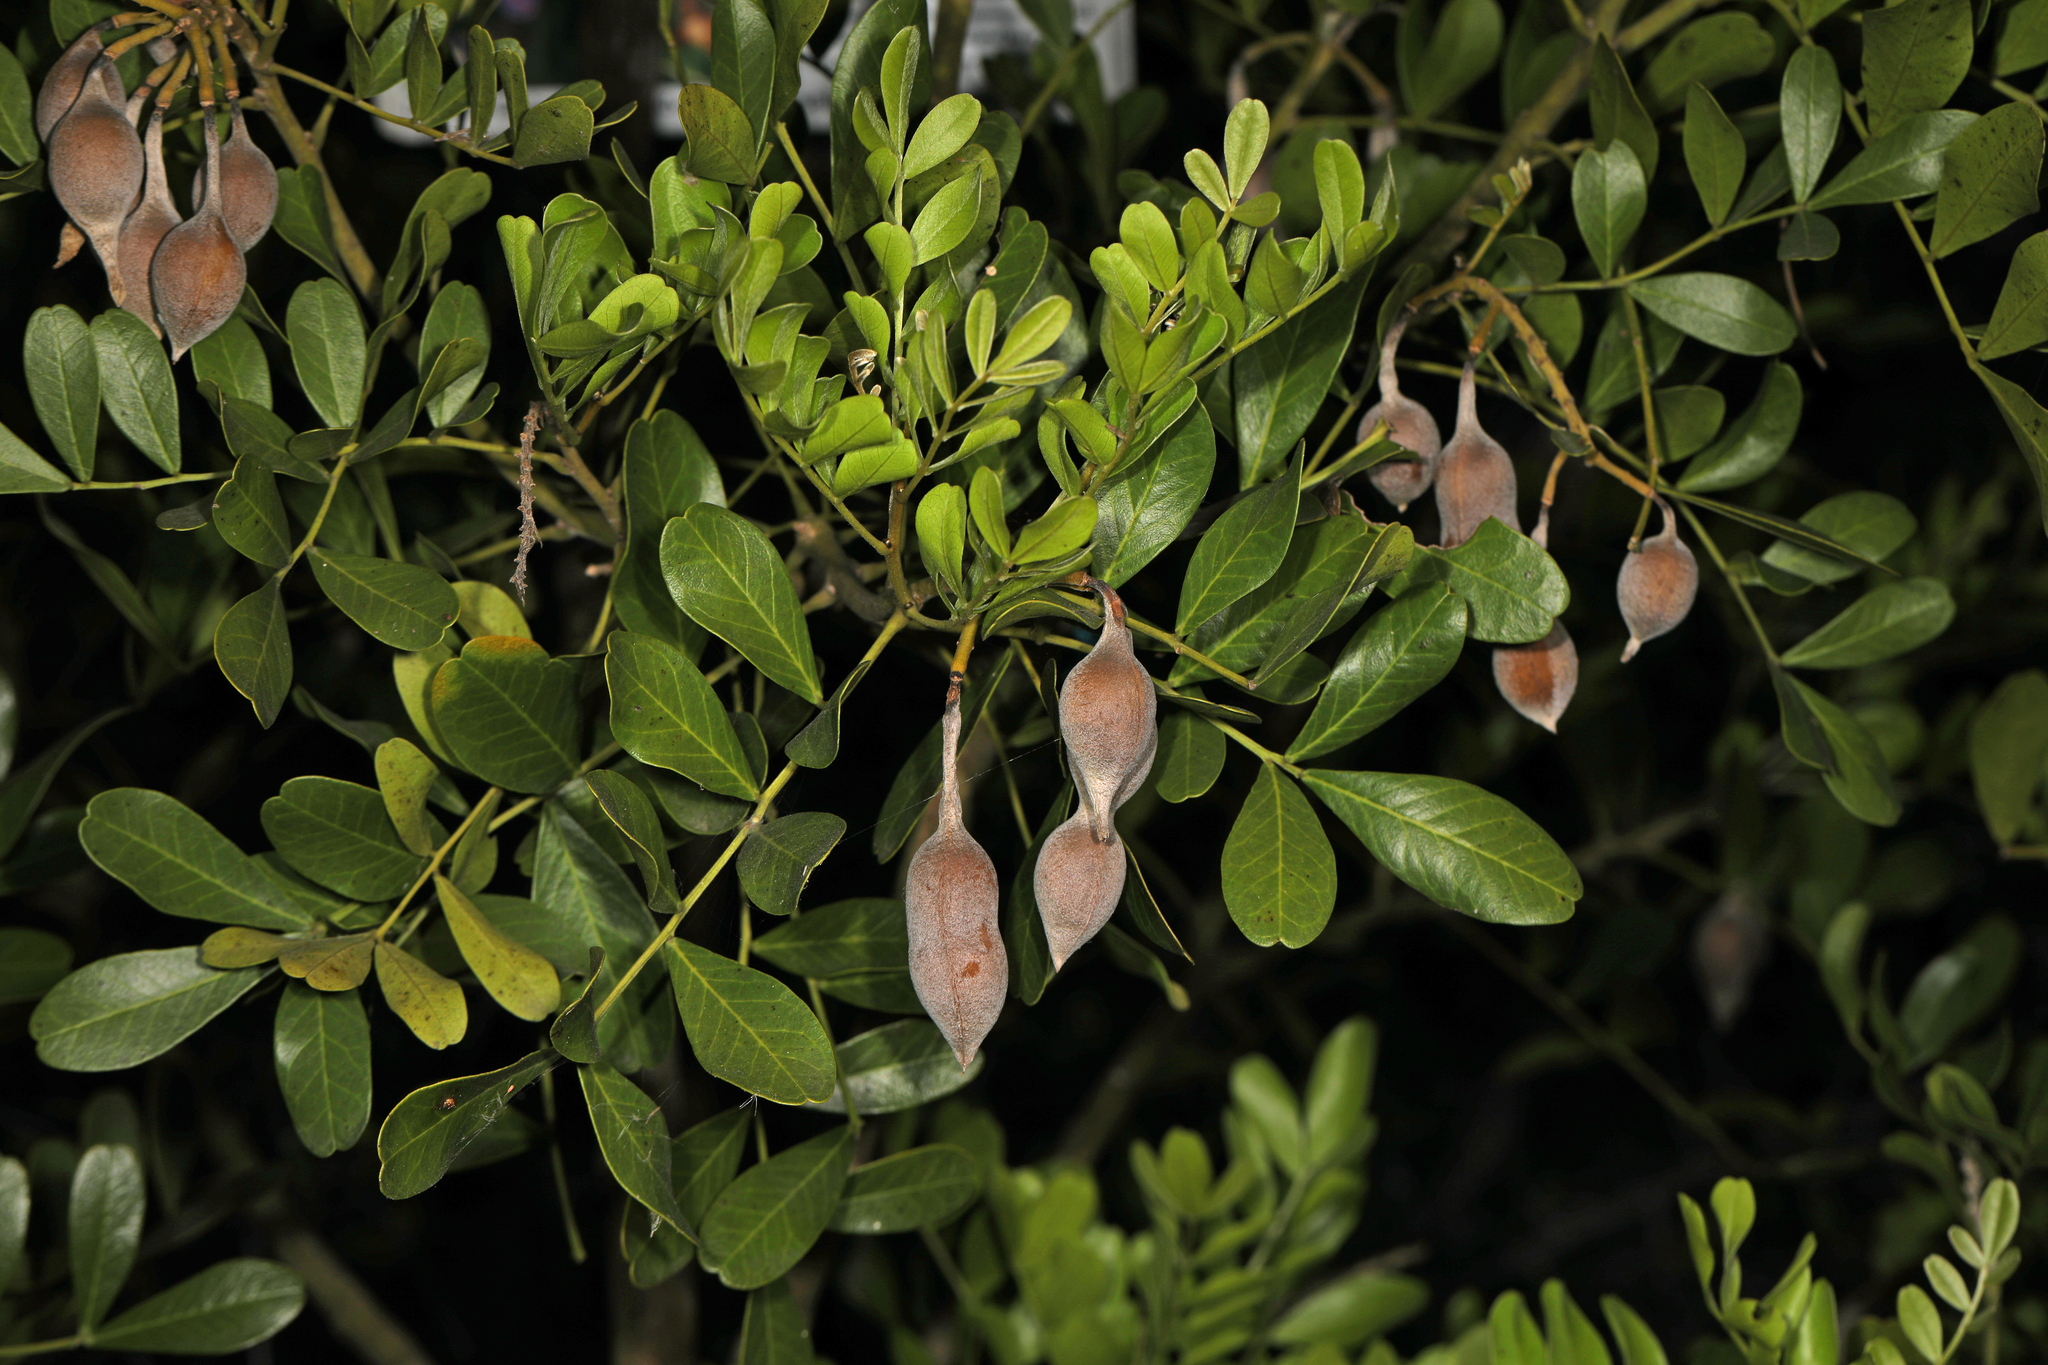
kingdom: Plantae
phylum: Tracheophyta
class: Magnoliopsida
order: Fabales
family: Fabaceae
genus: Dermatophyllum
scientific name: Dermatophyllum secundiflorum
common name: Texas-mountain-laurel
